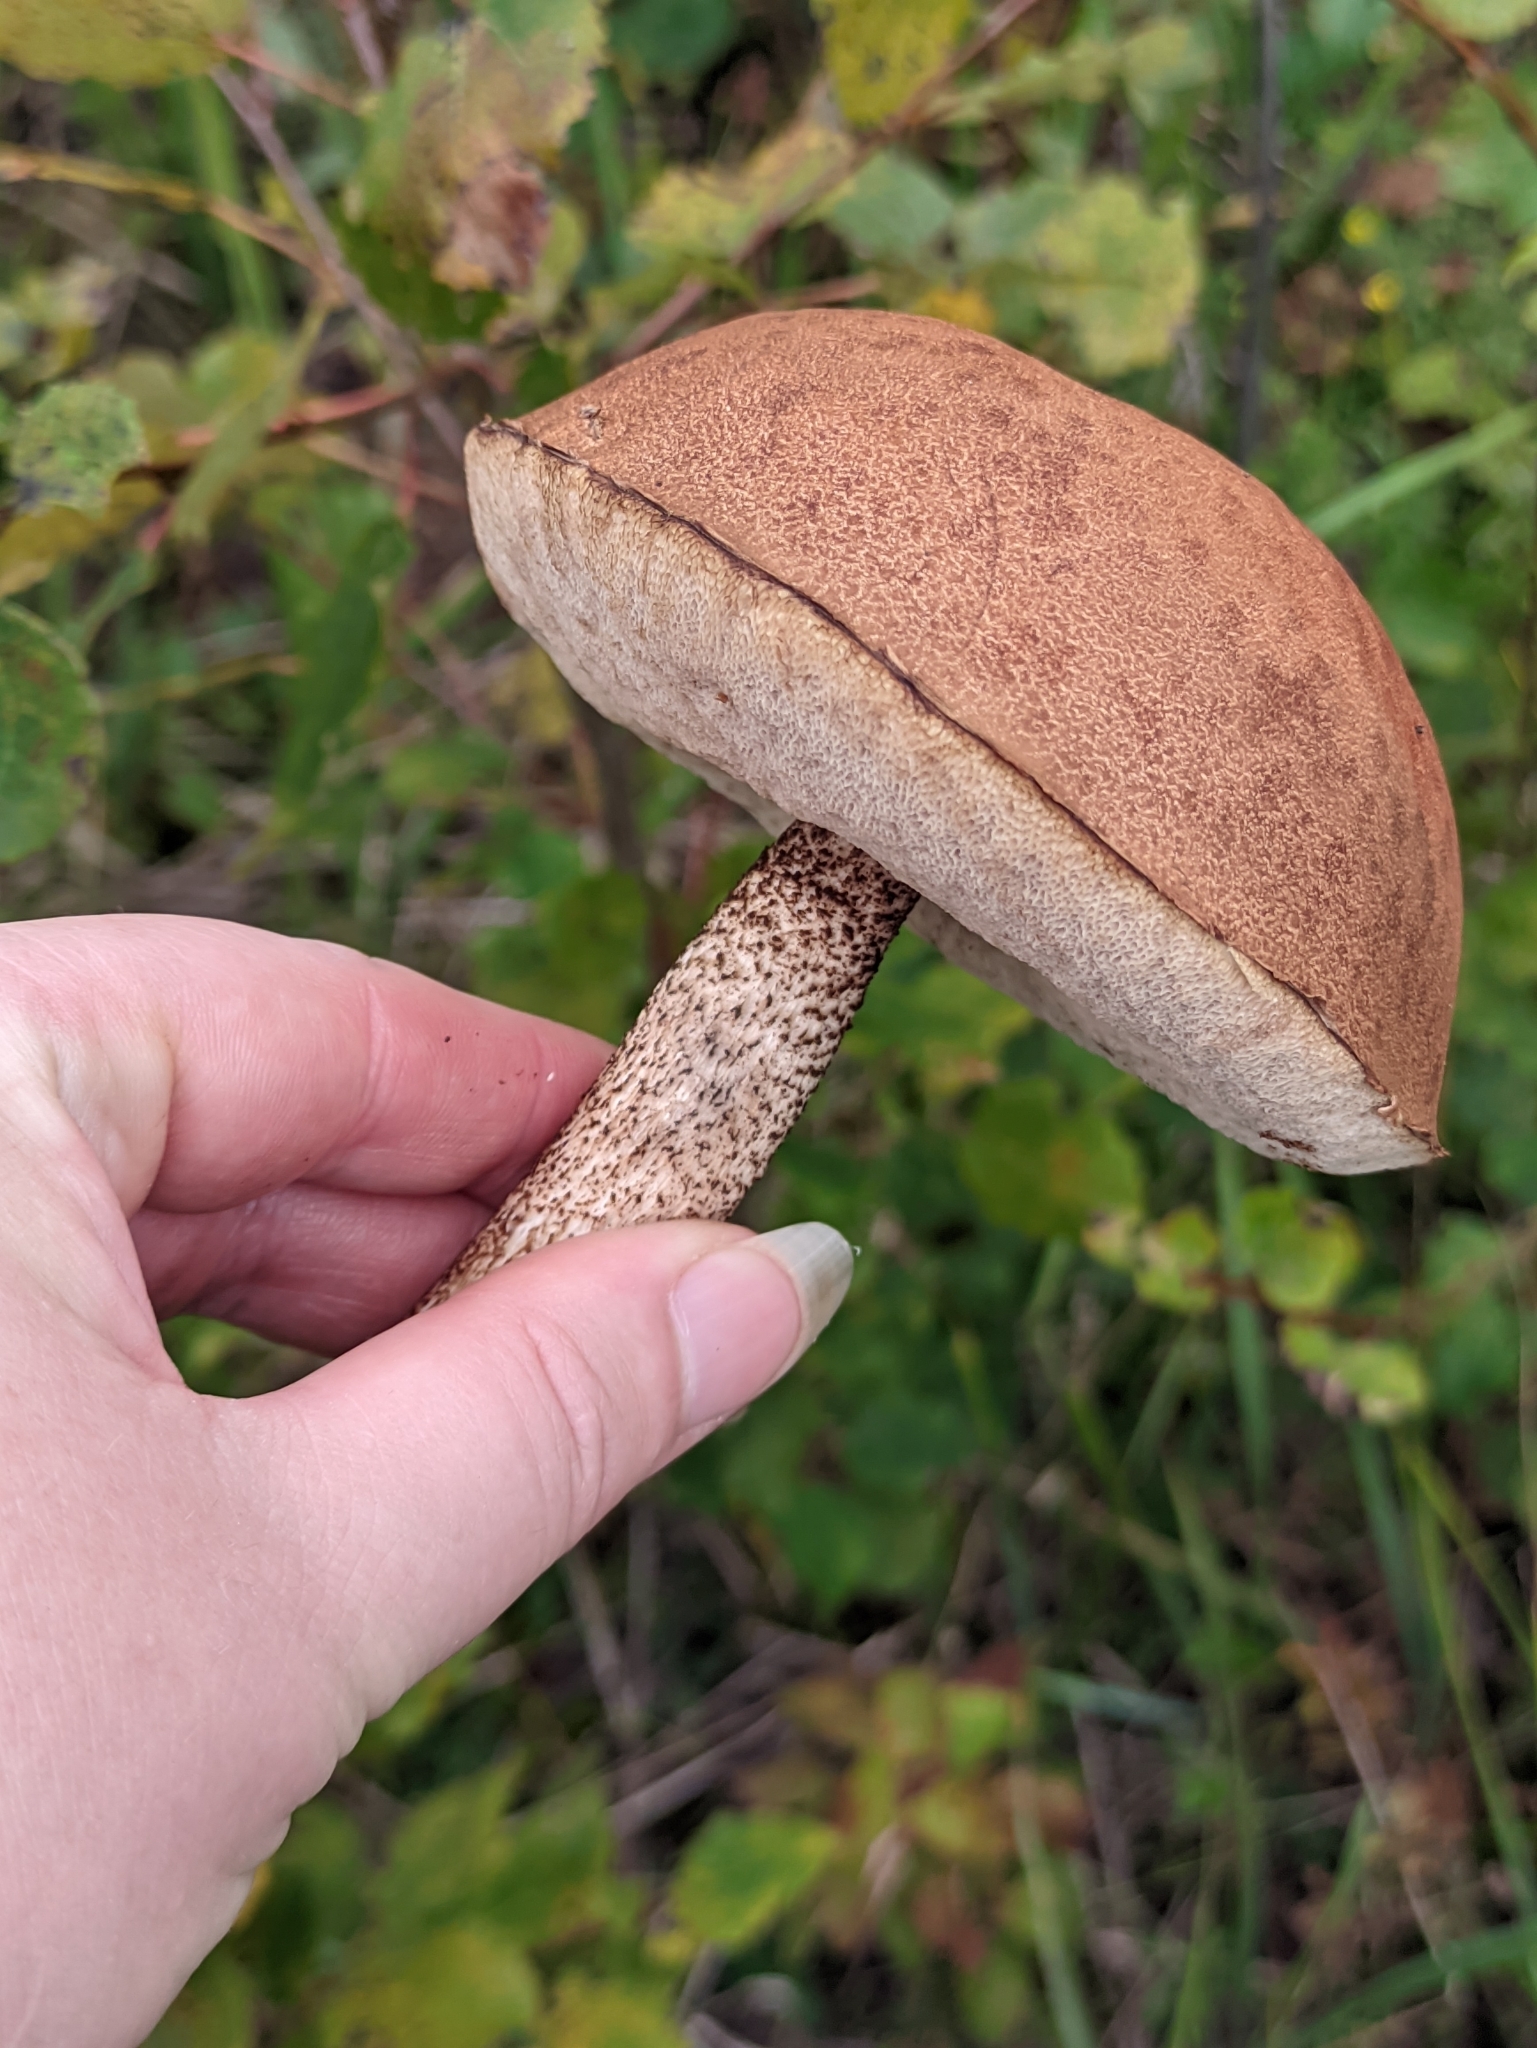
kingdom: Fungi
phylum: Basidiomycota
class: Agaricomycetes
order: Boletales
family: Boletaceae
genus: Leccinum
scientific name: Leccinum aurantiacum
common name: Orange bolete
